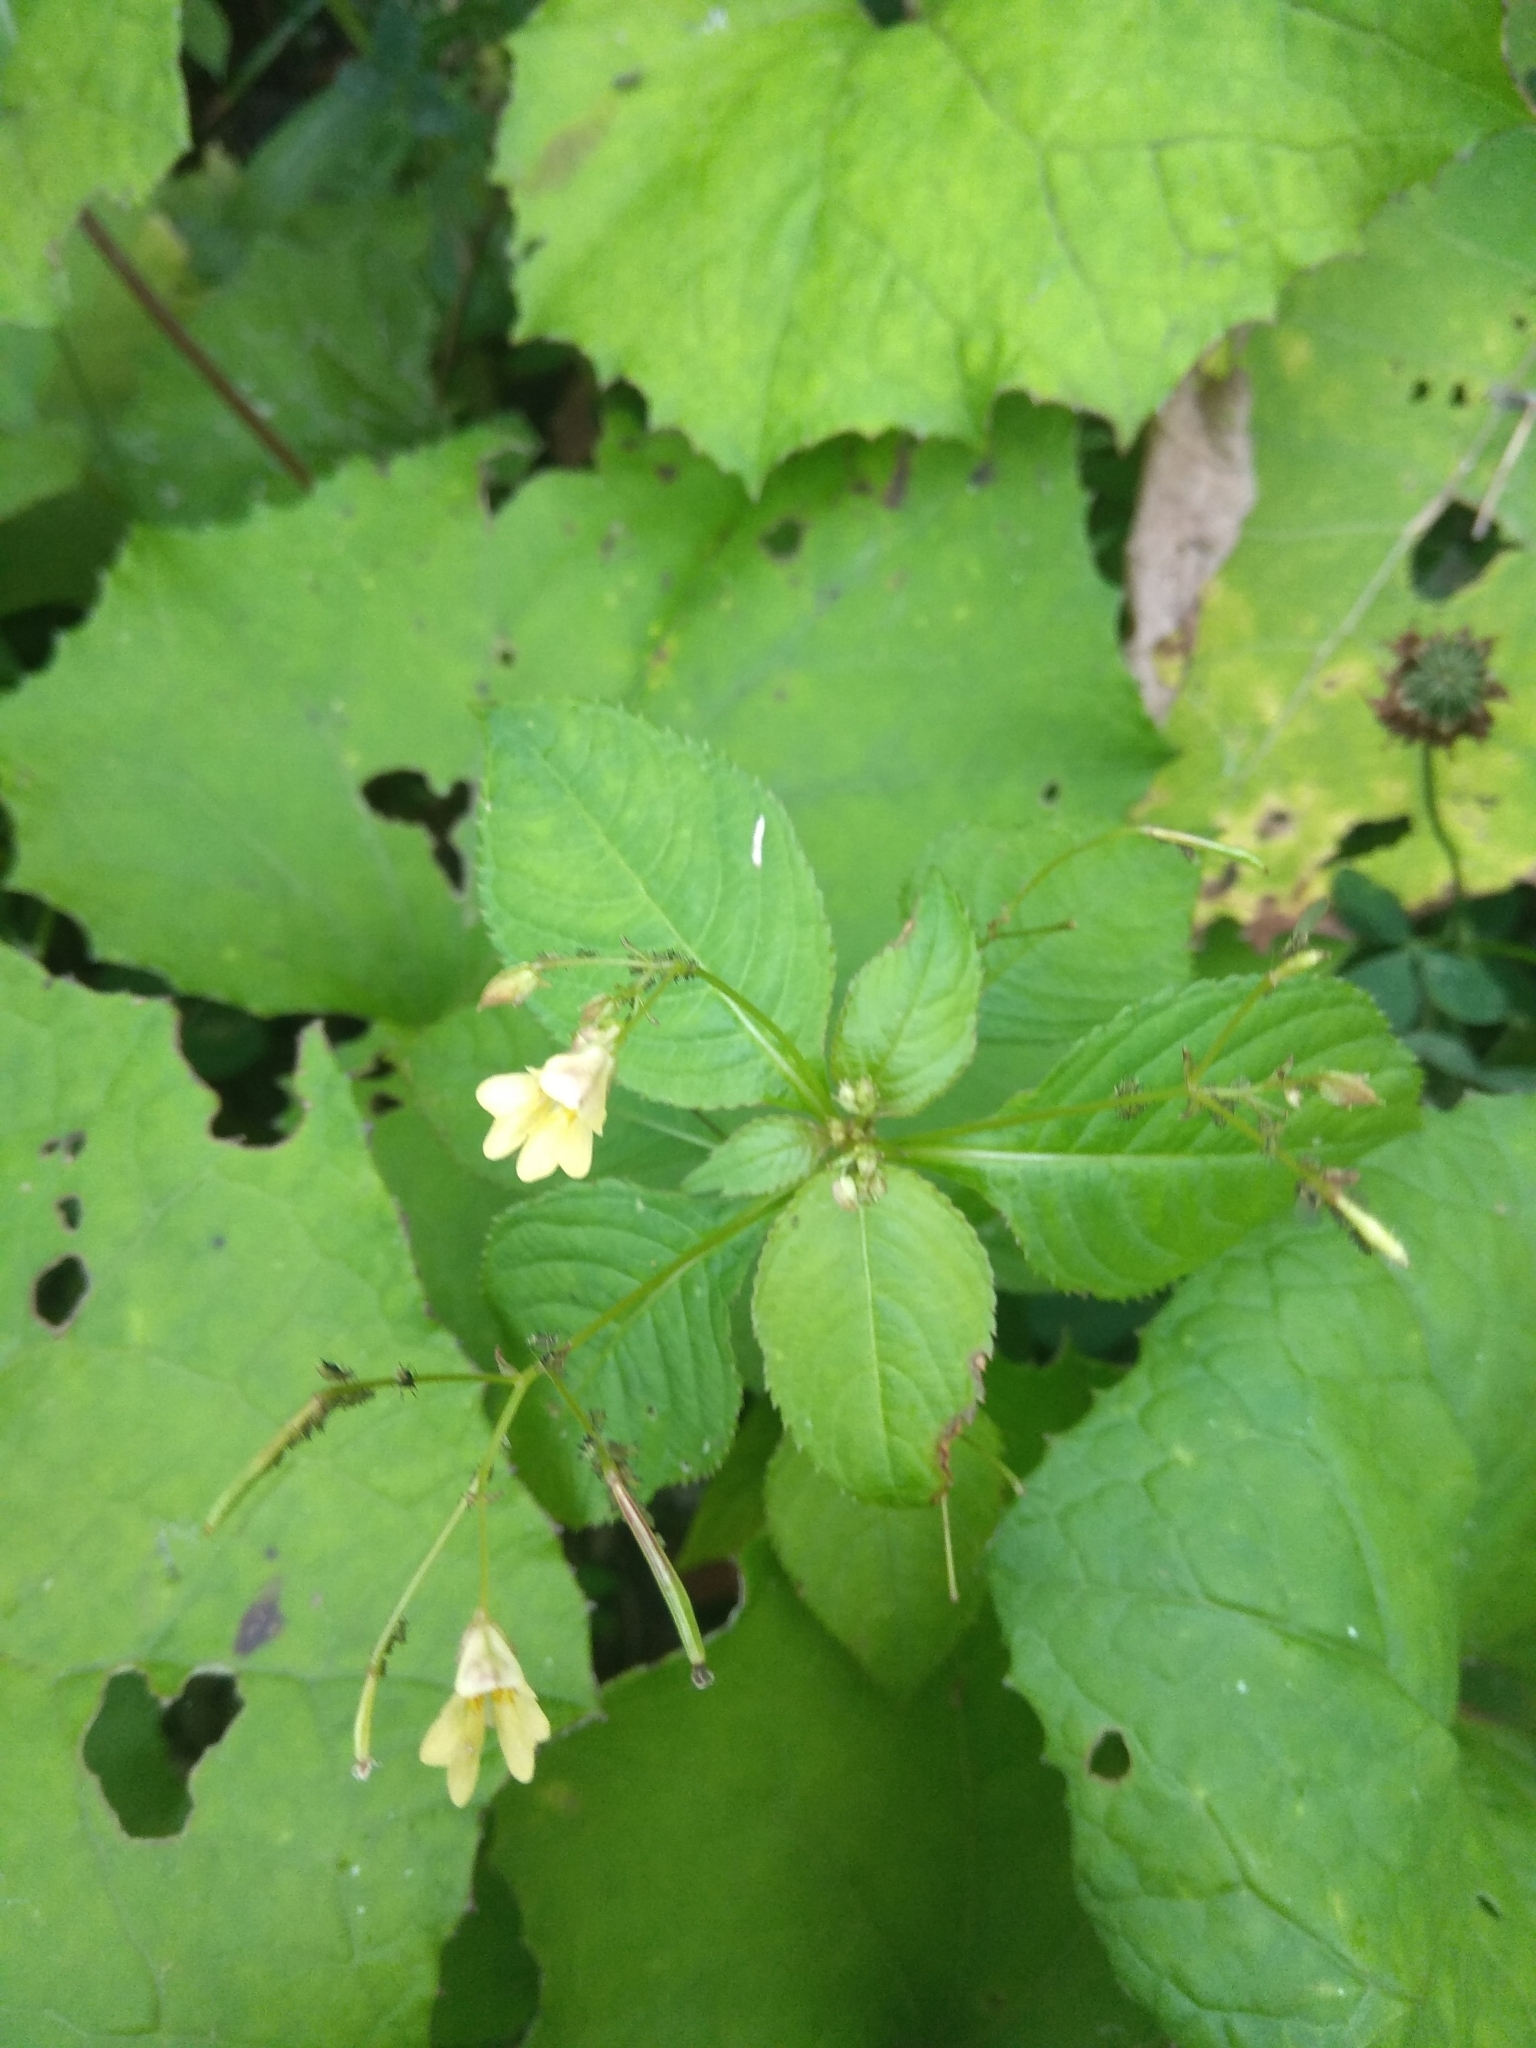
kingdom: Plantae
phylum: Tracheophyta
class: Magnoliopsida
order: Ericales
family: Balsaminaceae
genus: Impatiens
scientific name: Impatiens parviflora
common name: Small balsam
